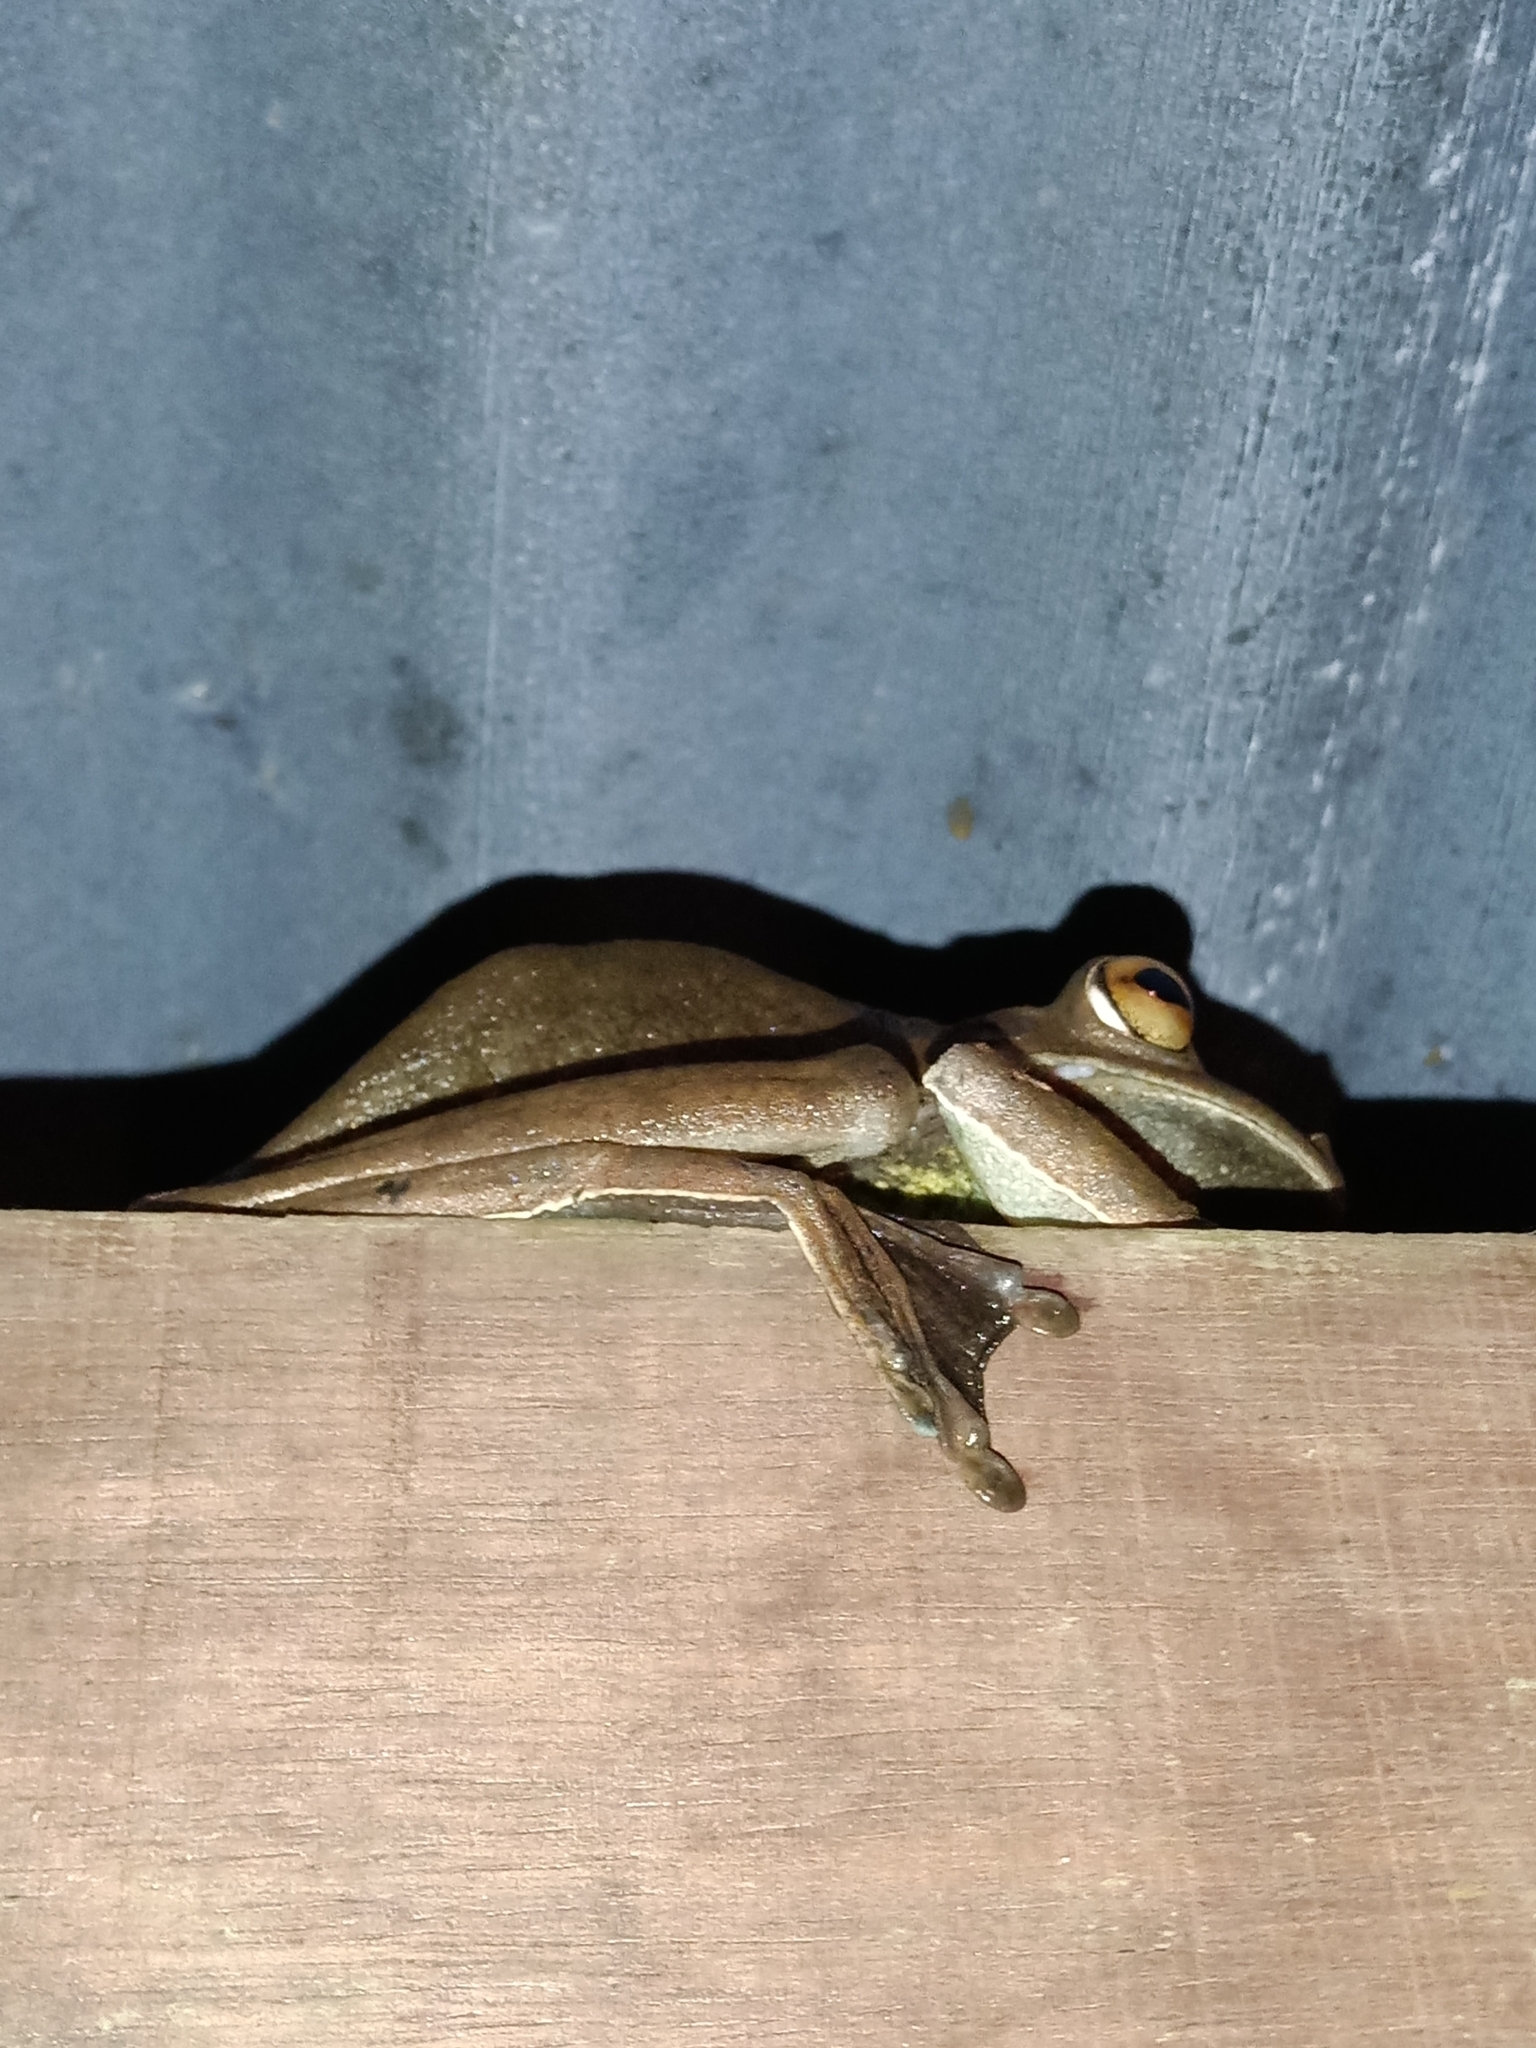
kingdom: Animalia
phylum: Chordata
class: Amphibia
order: Anura
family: Hylidae
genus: Boana
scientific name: Boana boans
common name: Giant gladiator treefrog
